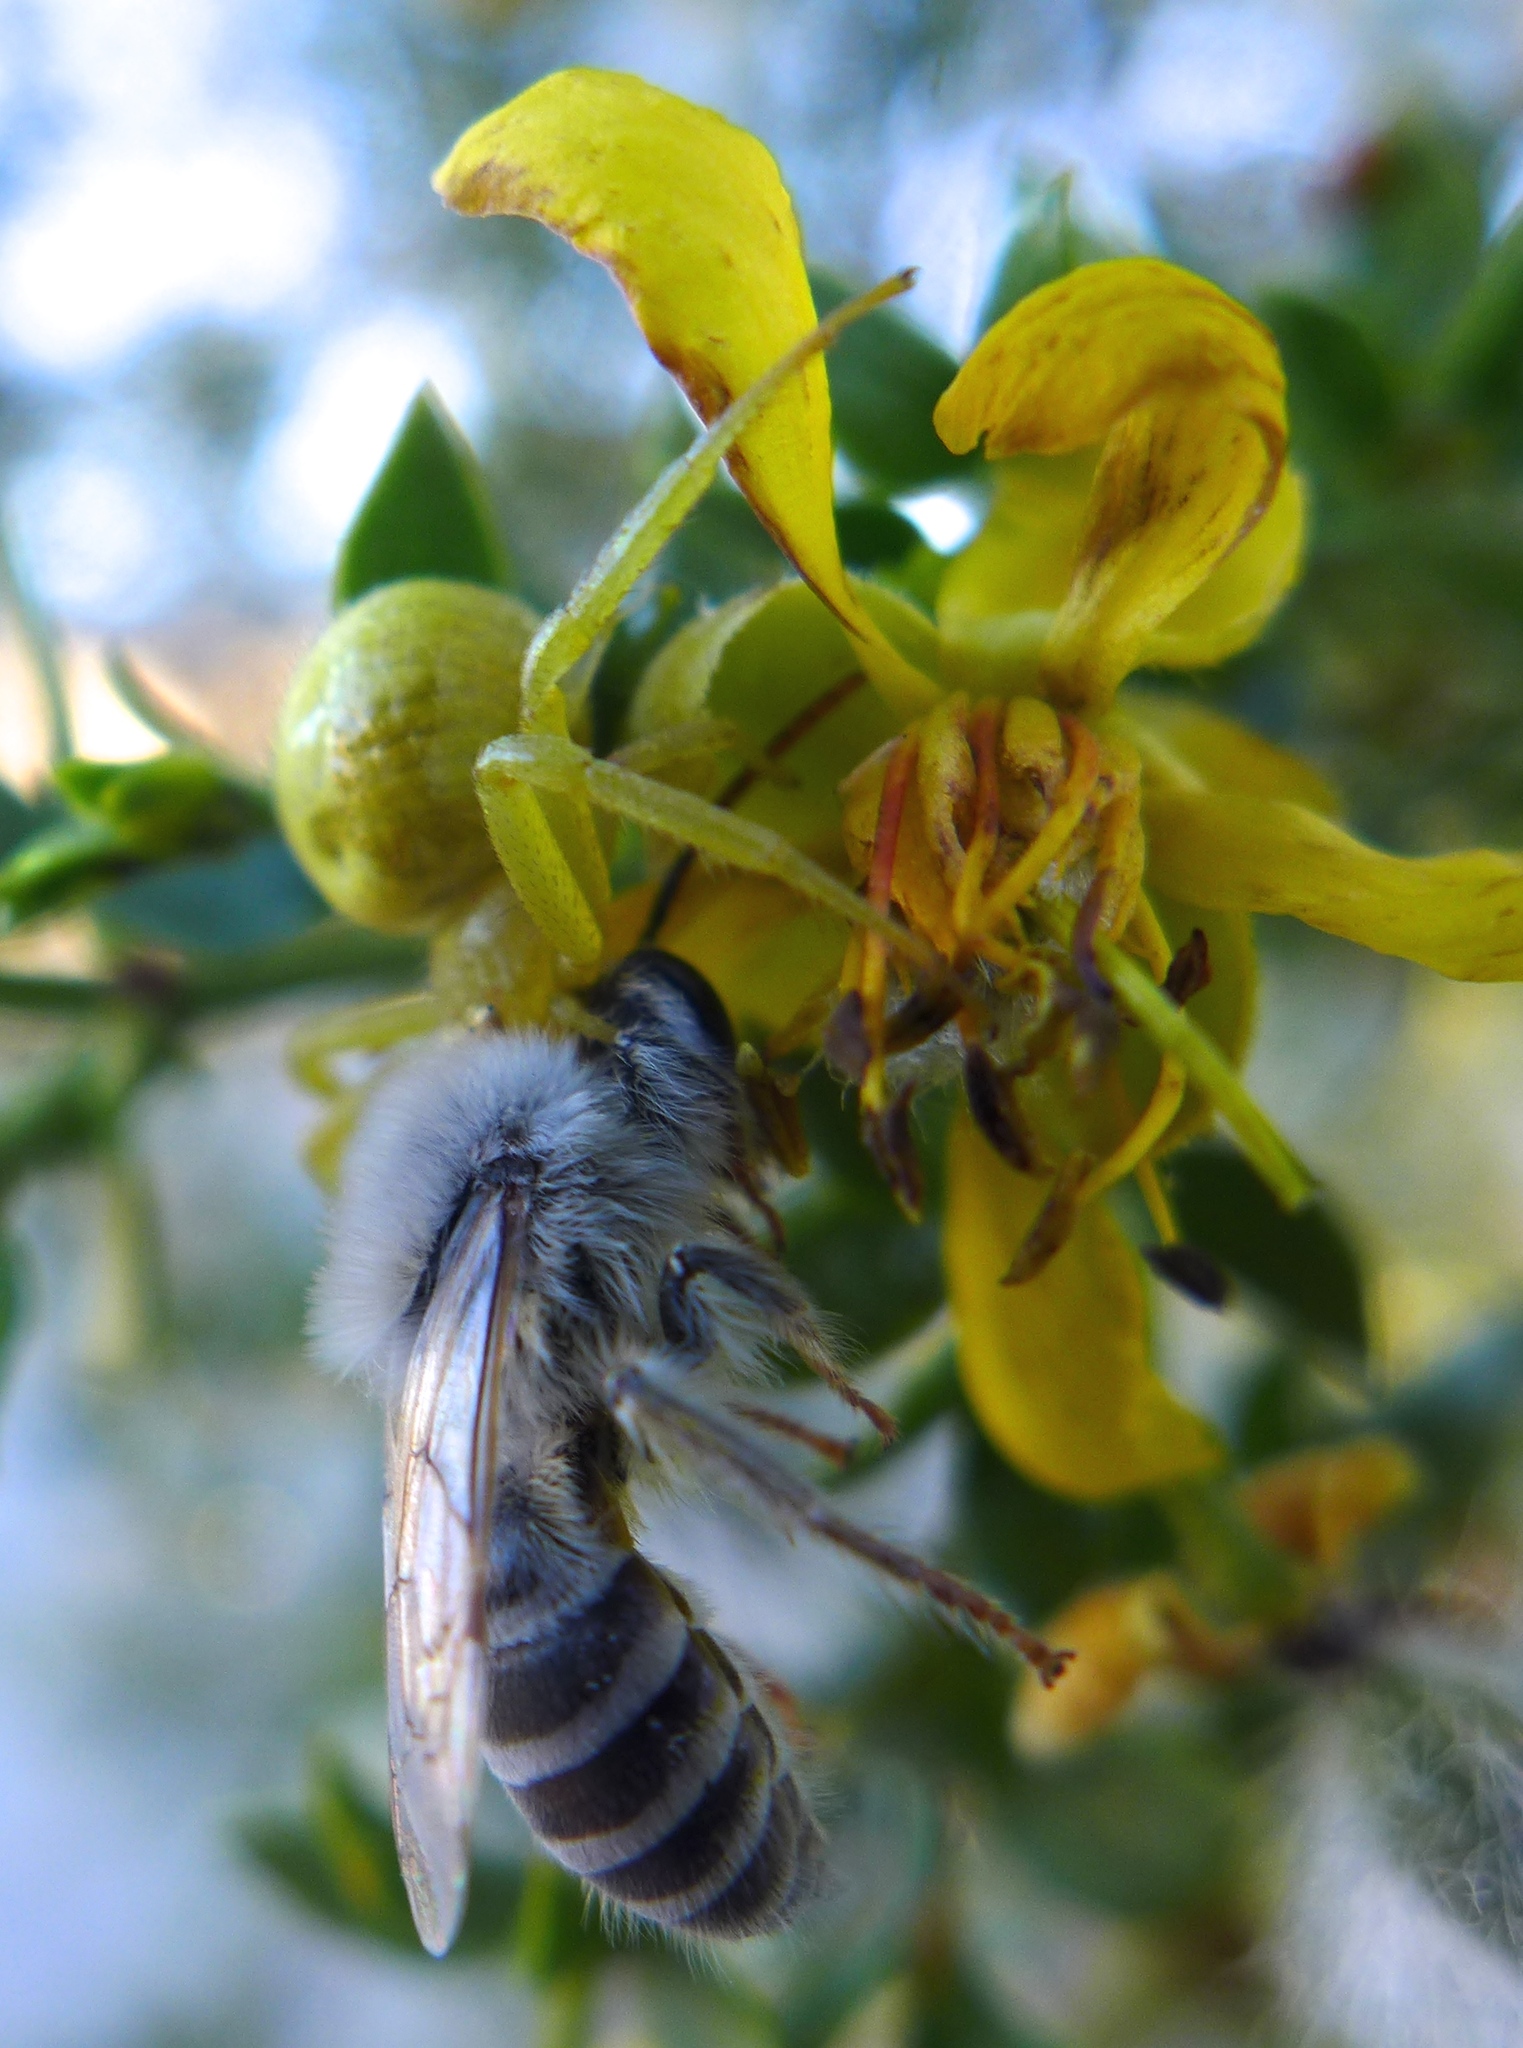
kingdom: Animalia
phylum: Arthropoda
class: Insecta
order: Hymenoptera
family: Colletidae
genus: Colletes
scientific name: Colletes
